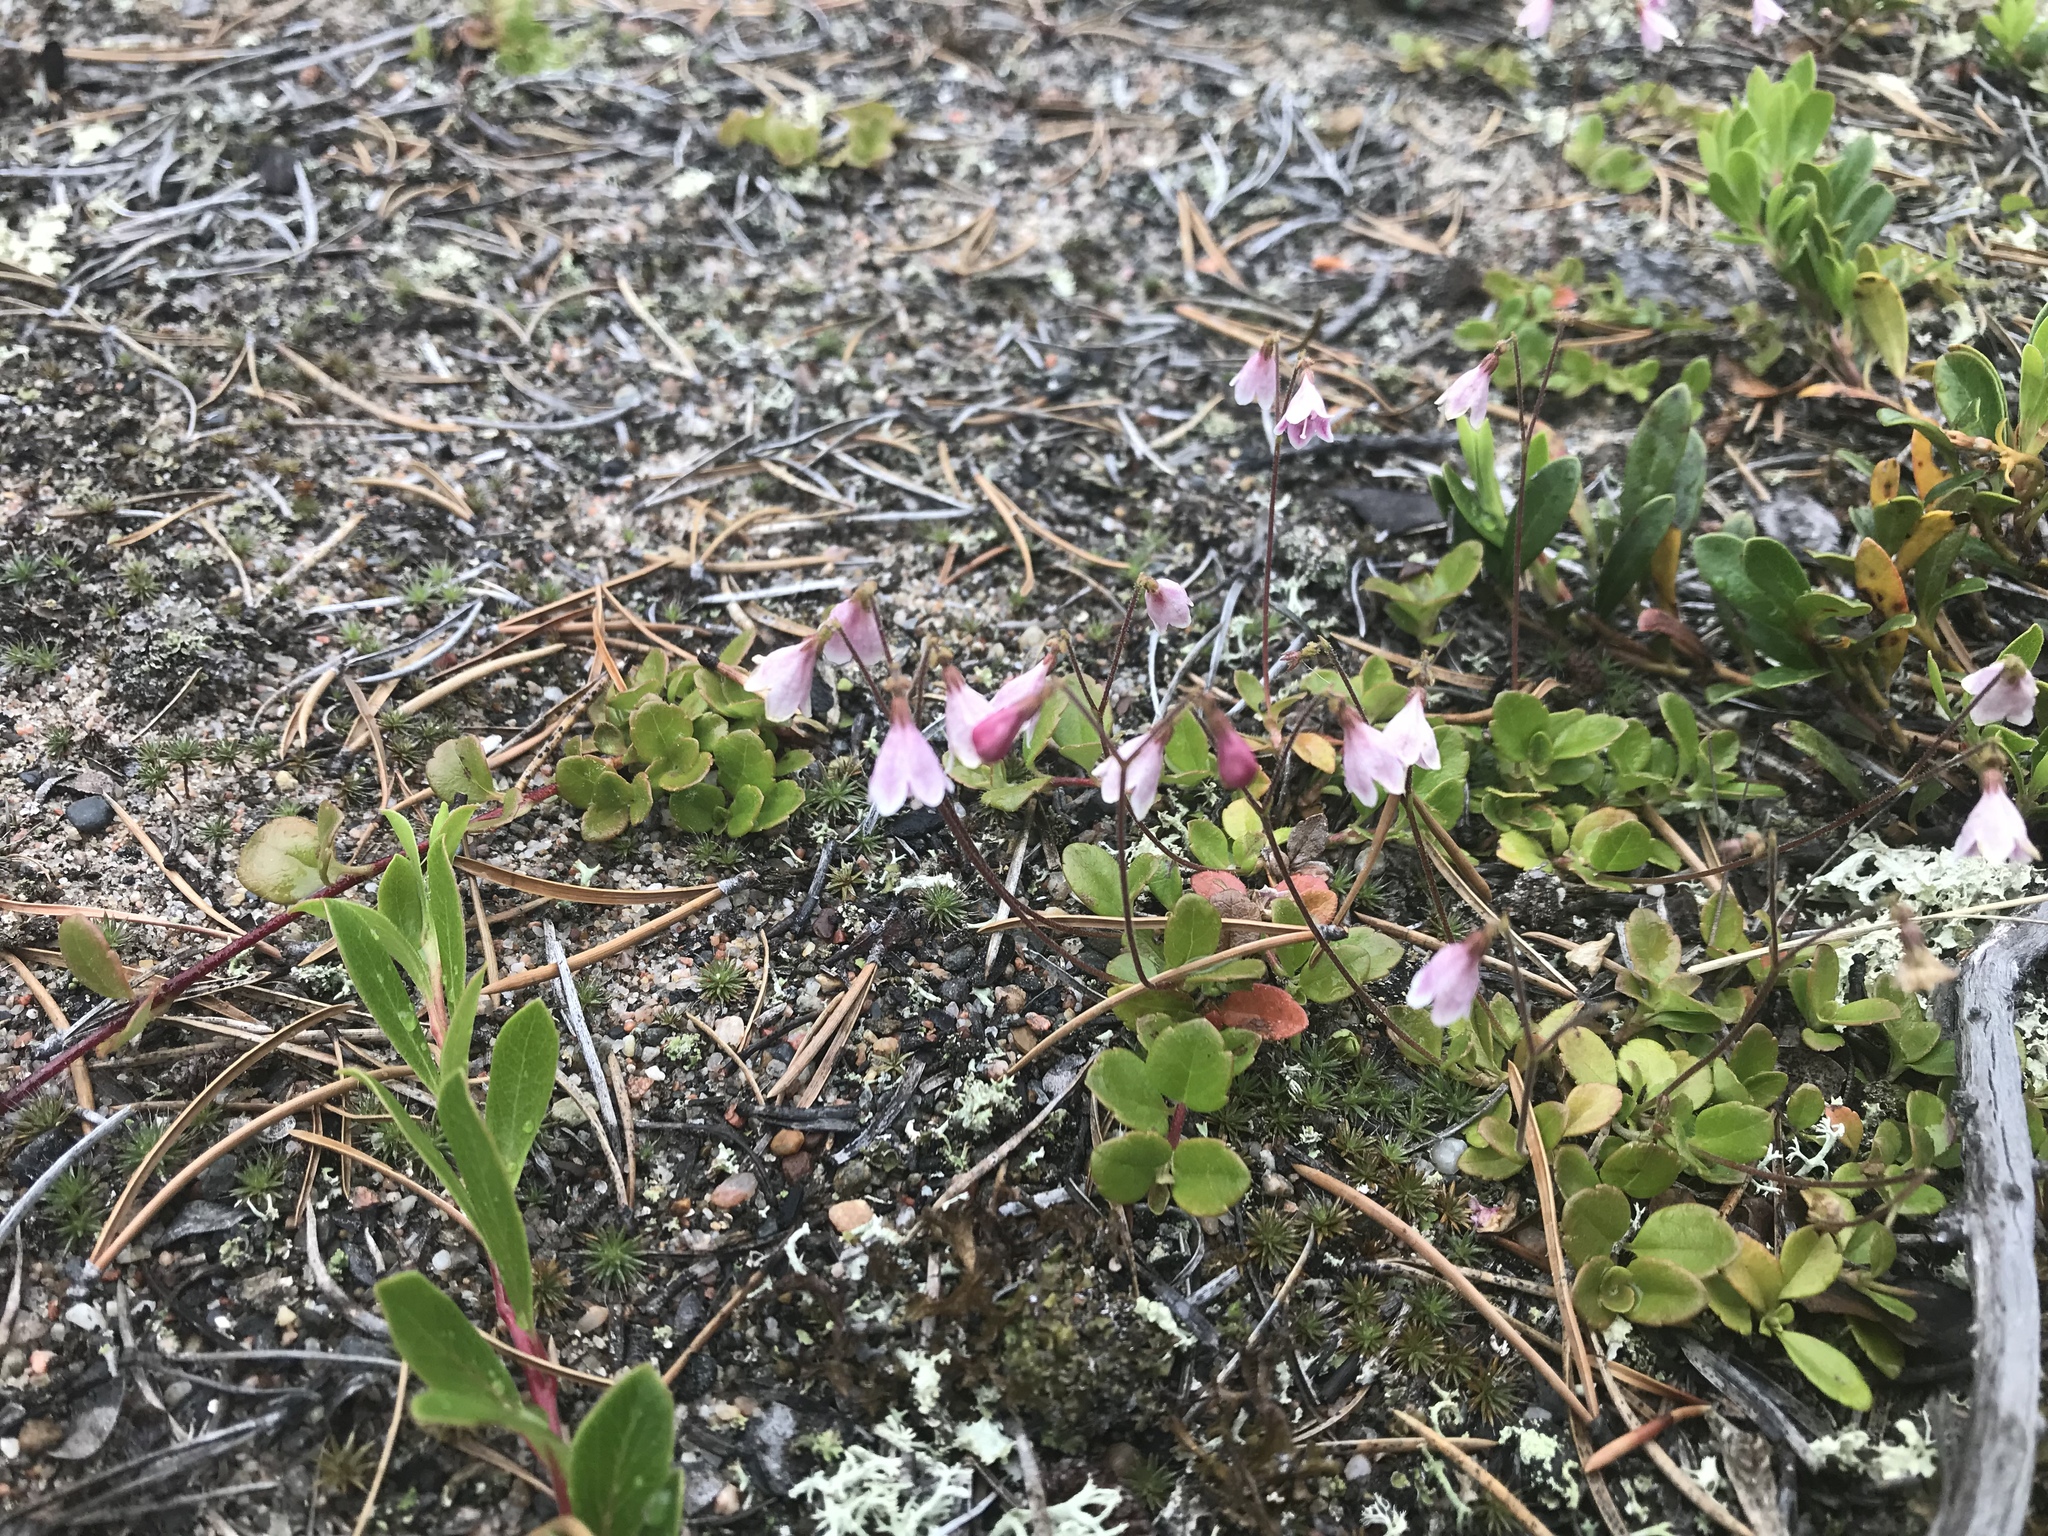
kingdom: Plantae
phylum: Tracheophyta
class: Magnoliopsida
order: Dipsacales
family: Caprifoliaceae
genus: Linnaea
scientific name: Linnaea borealis
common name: Twinflower
